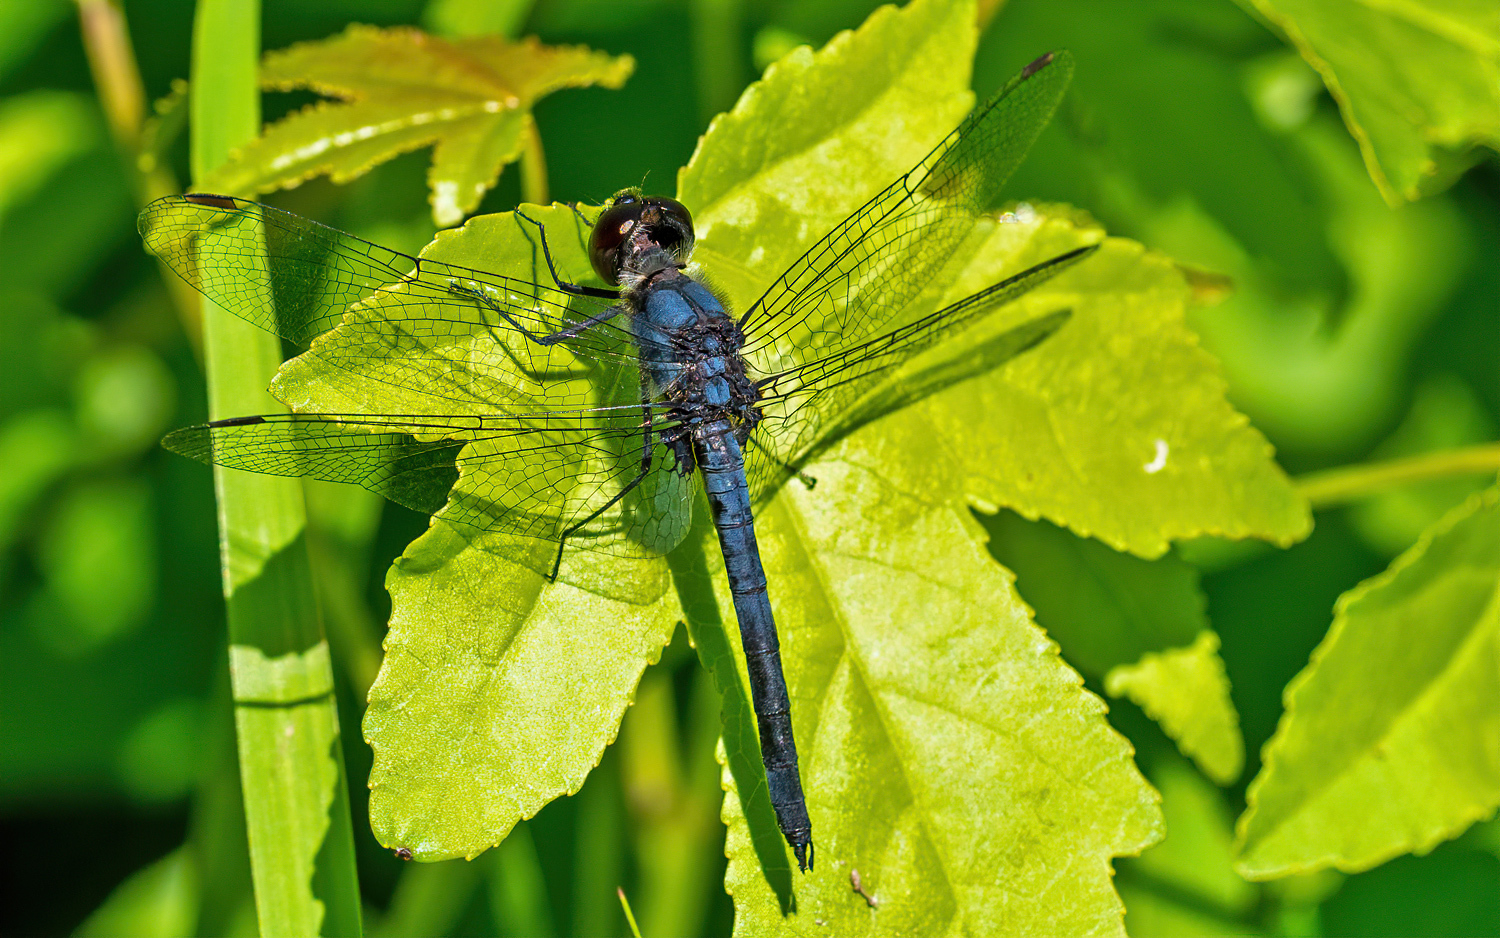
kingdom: Animalia
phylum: Arthropoda
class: Insecta
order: Odonata
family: Libellulidae
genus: Celithemis
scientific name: Celithemis verna
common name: Double-ringed pennant
